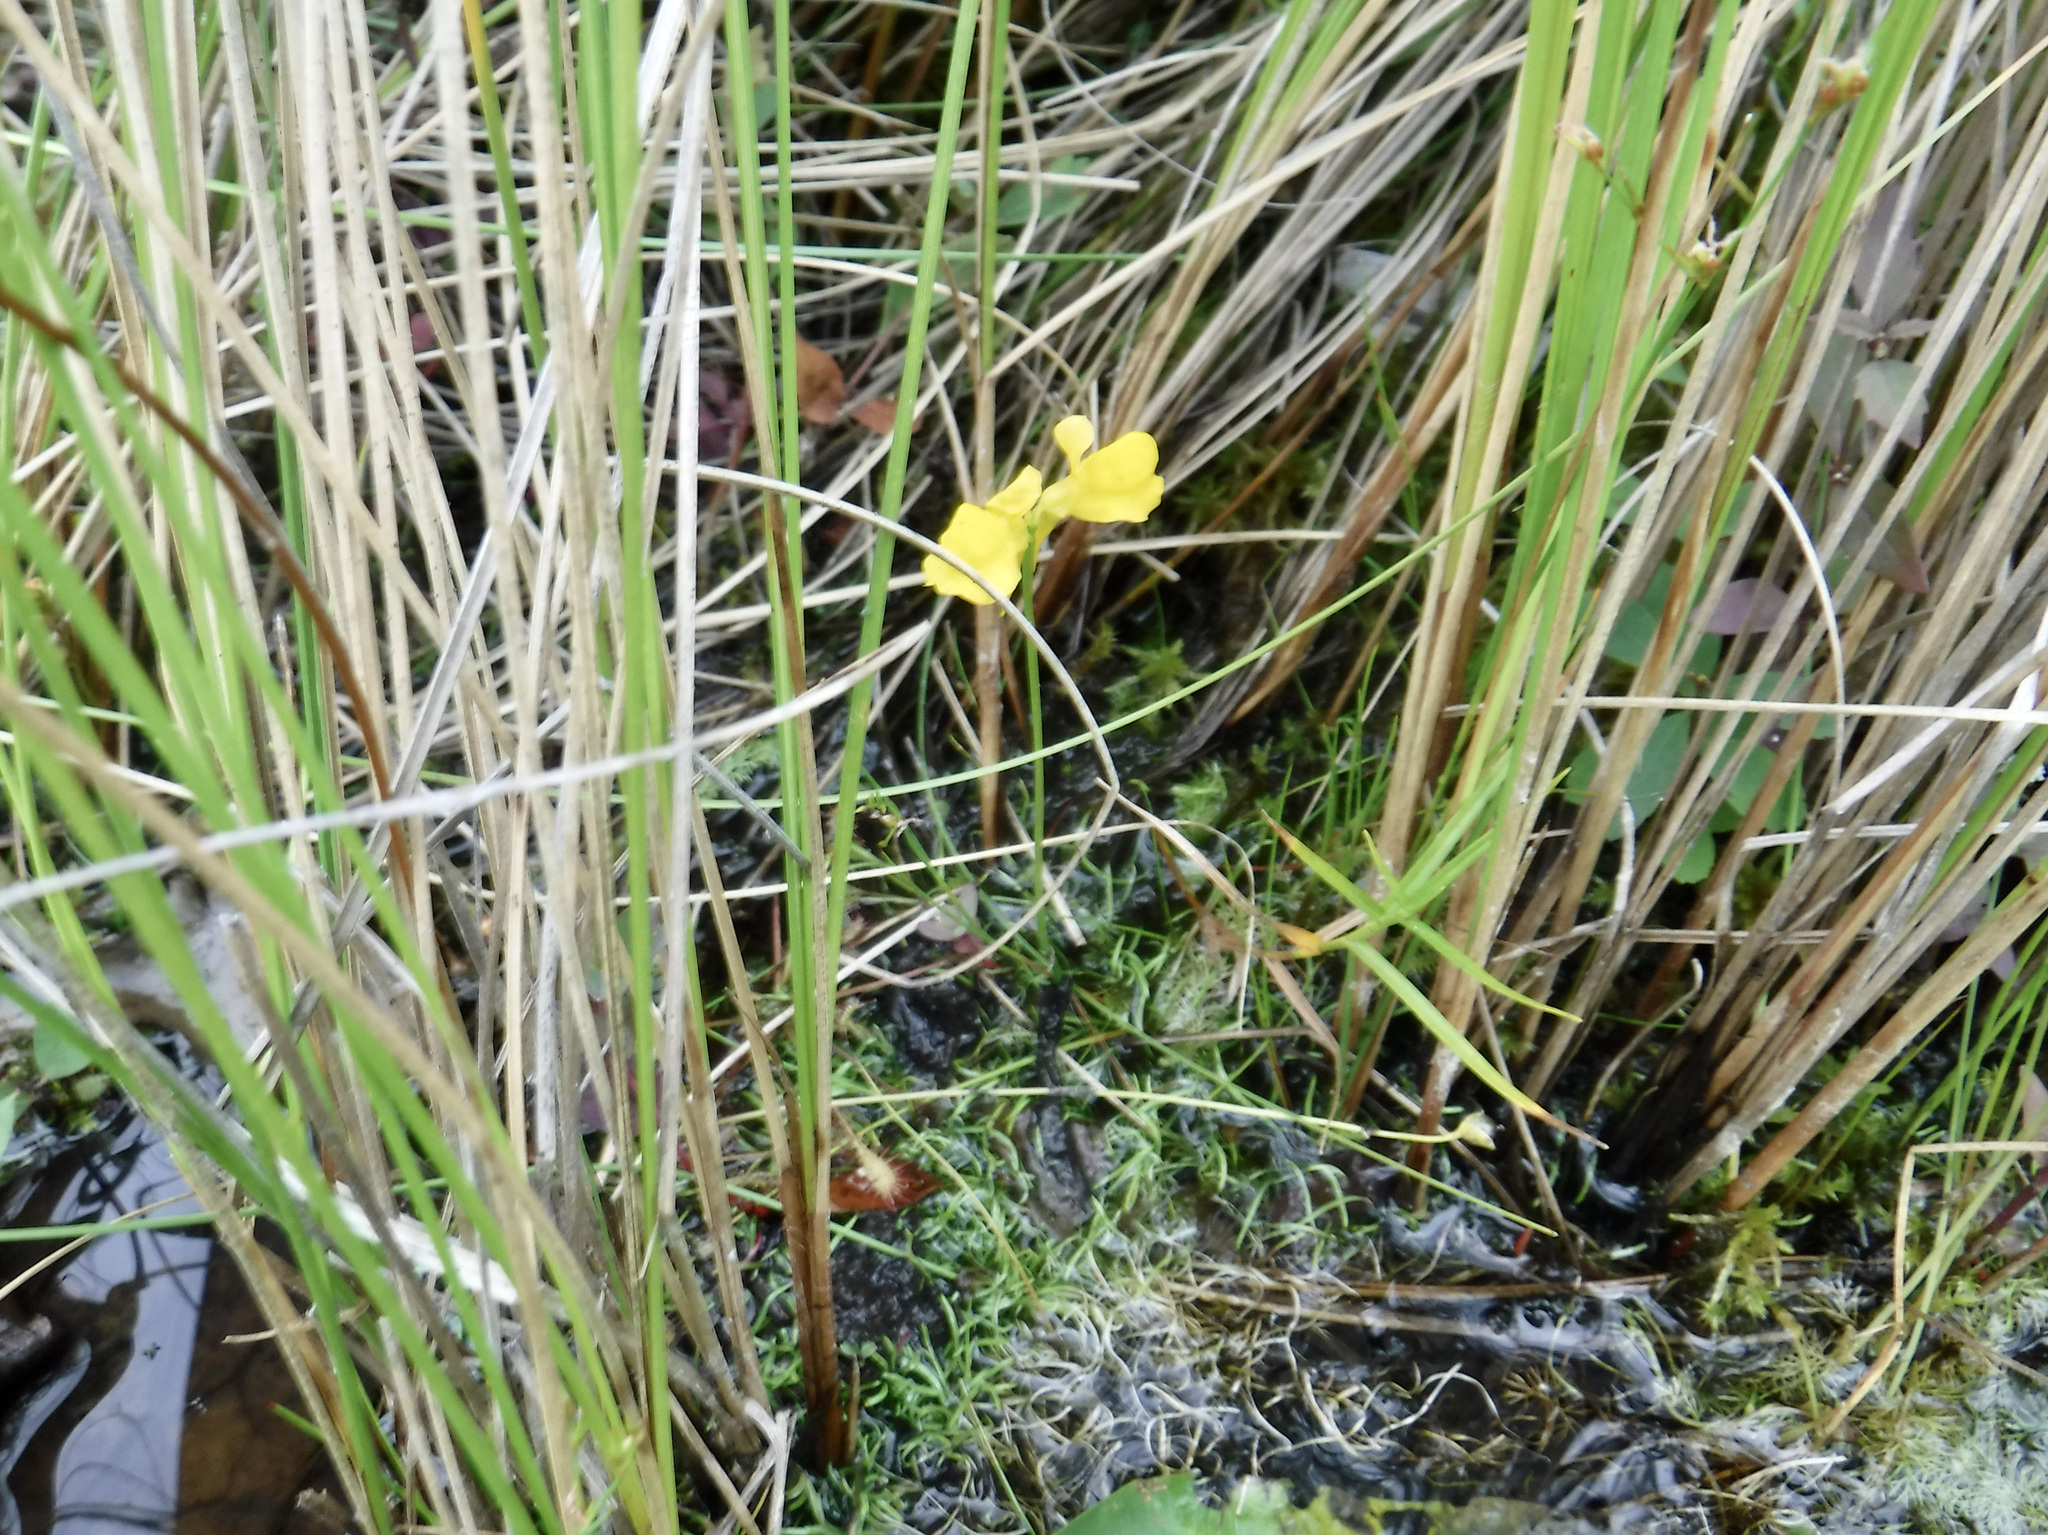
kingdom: Plantae
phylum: Tracheophyta
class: Magnoliopsida
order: Lamiales
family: Lentibulariaceae
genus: Utricularia
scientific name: Utricularia cornuta
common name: Horned bladderwort
